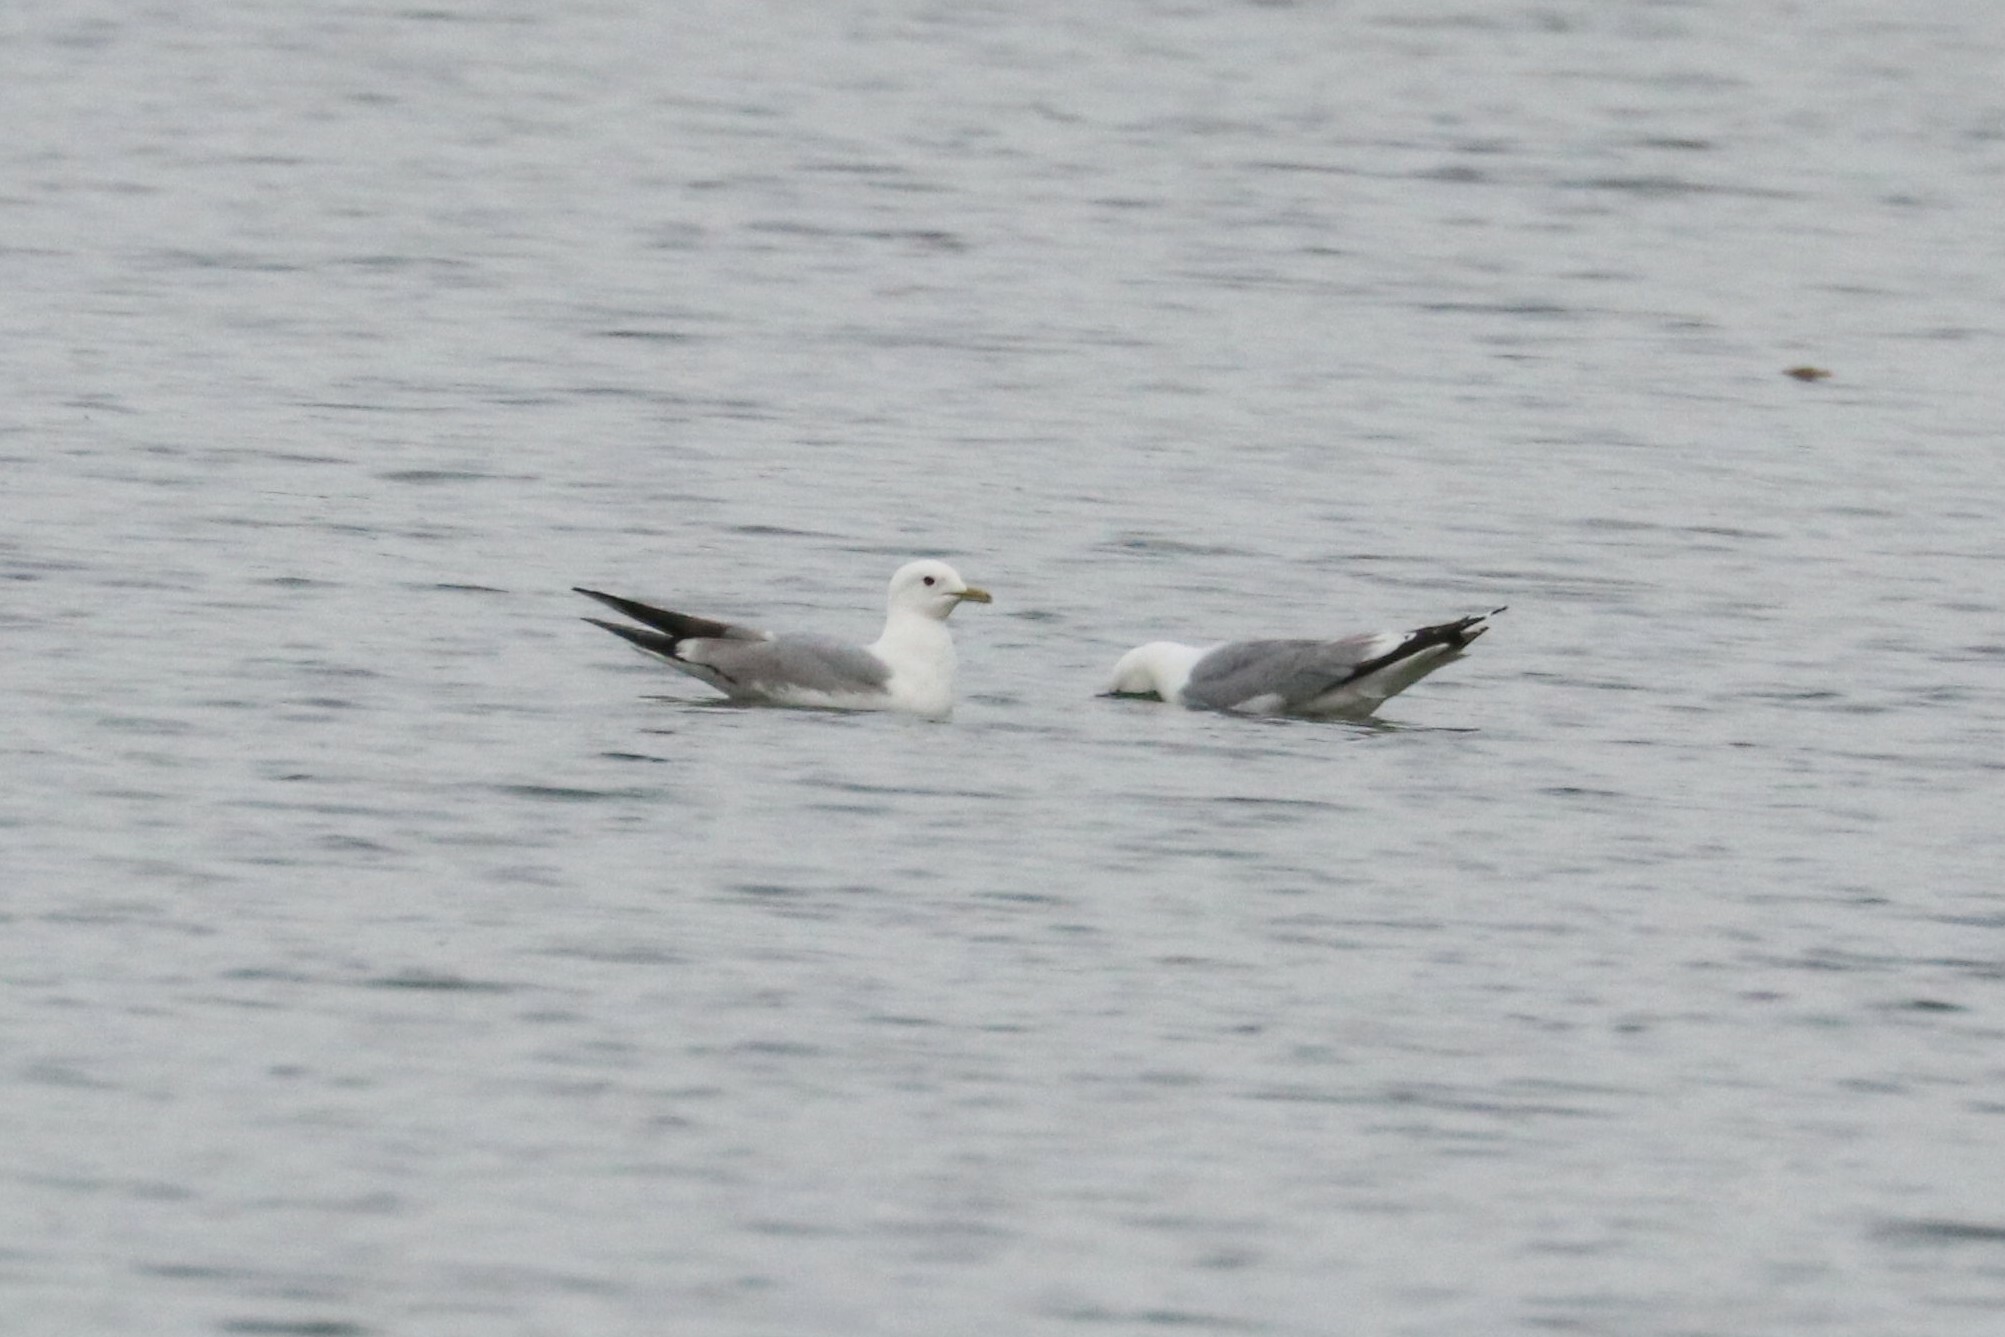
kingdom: Animalia
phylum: Chordata
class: Aves
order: Charadriiformes
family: Laridae
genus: Larus
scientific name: Larus canus
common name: Mew gull
